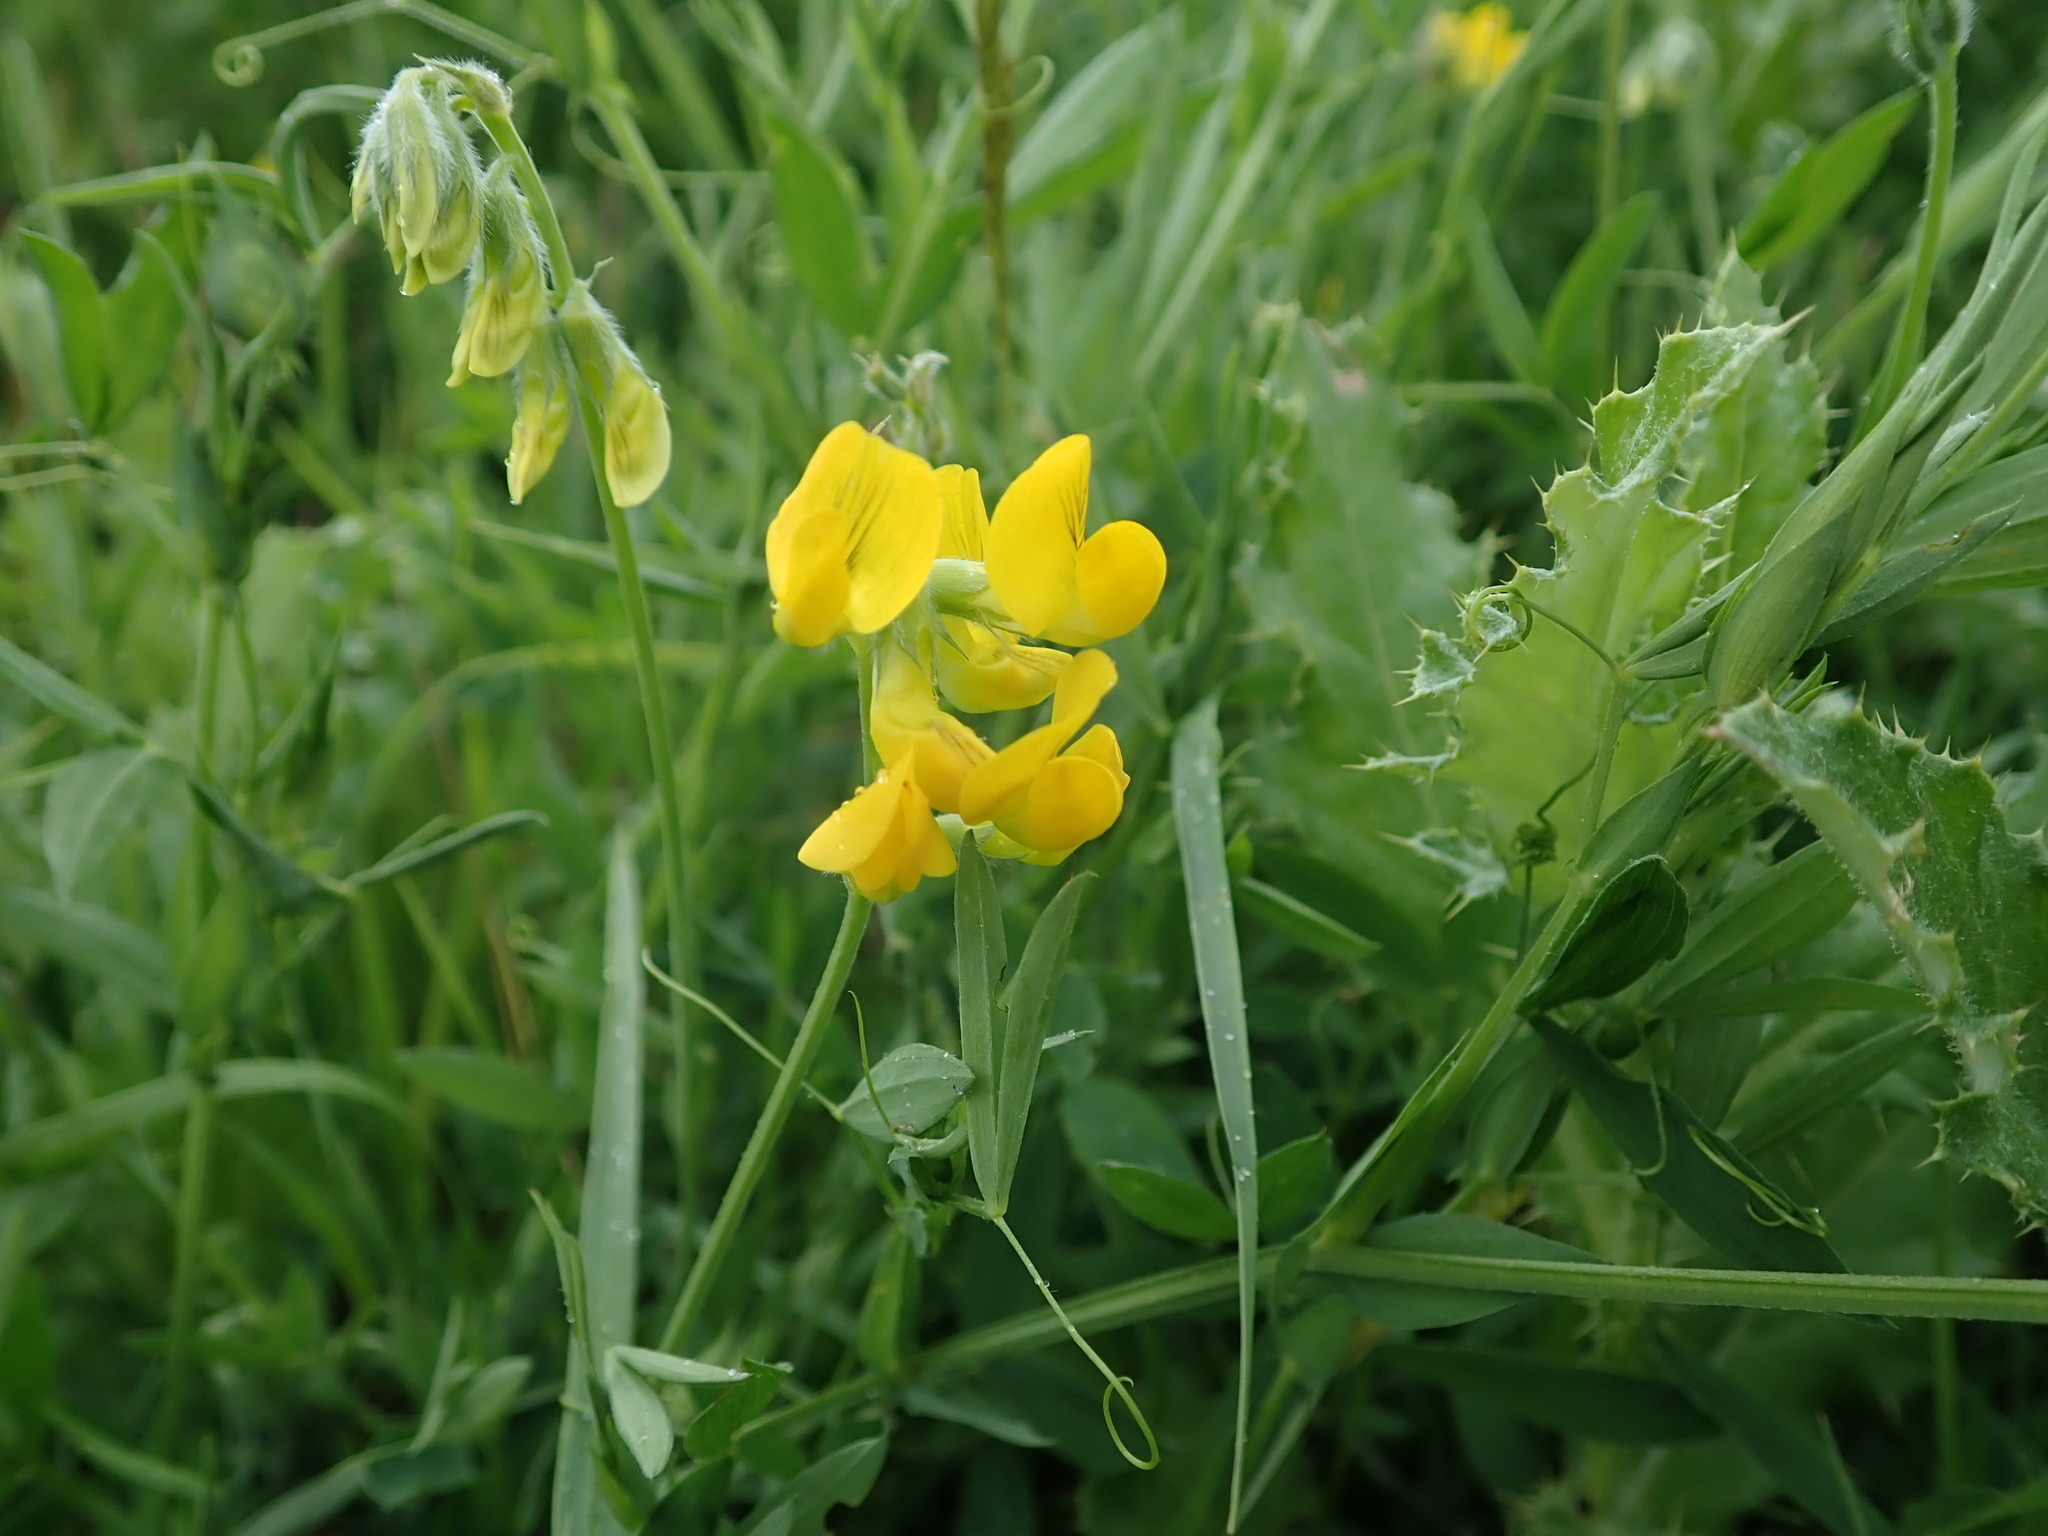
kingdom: Plantae
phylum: Tracheophyta
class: Magnoliopsida
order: Fabales
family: Fabaceae
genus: Lathyrus
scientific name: Lathyrus pratensis
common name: Meadow vetchling
